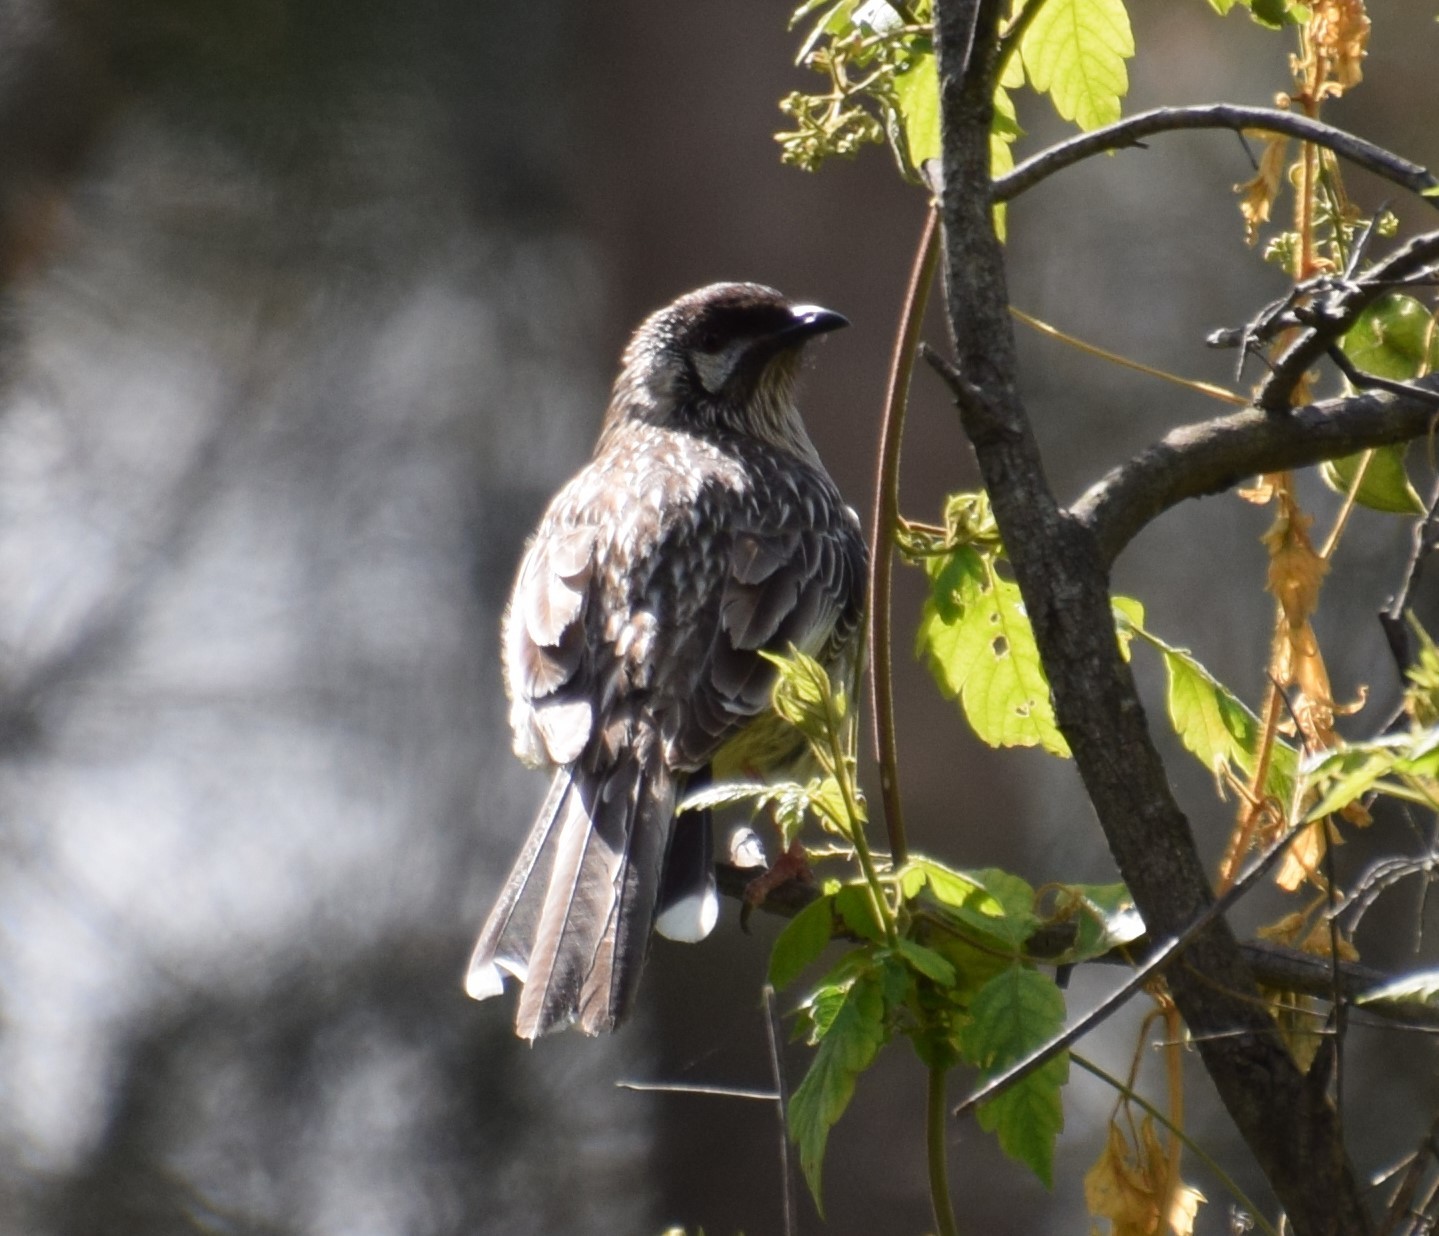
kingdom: Animalia
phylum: Chordata
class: Aves
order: Passeriformes
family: Meliphagidae
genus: Anthochaera
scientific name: Anthochaera carunculata
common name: Red wattlebird
